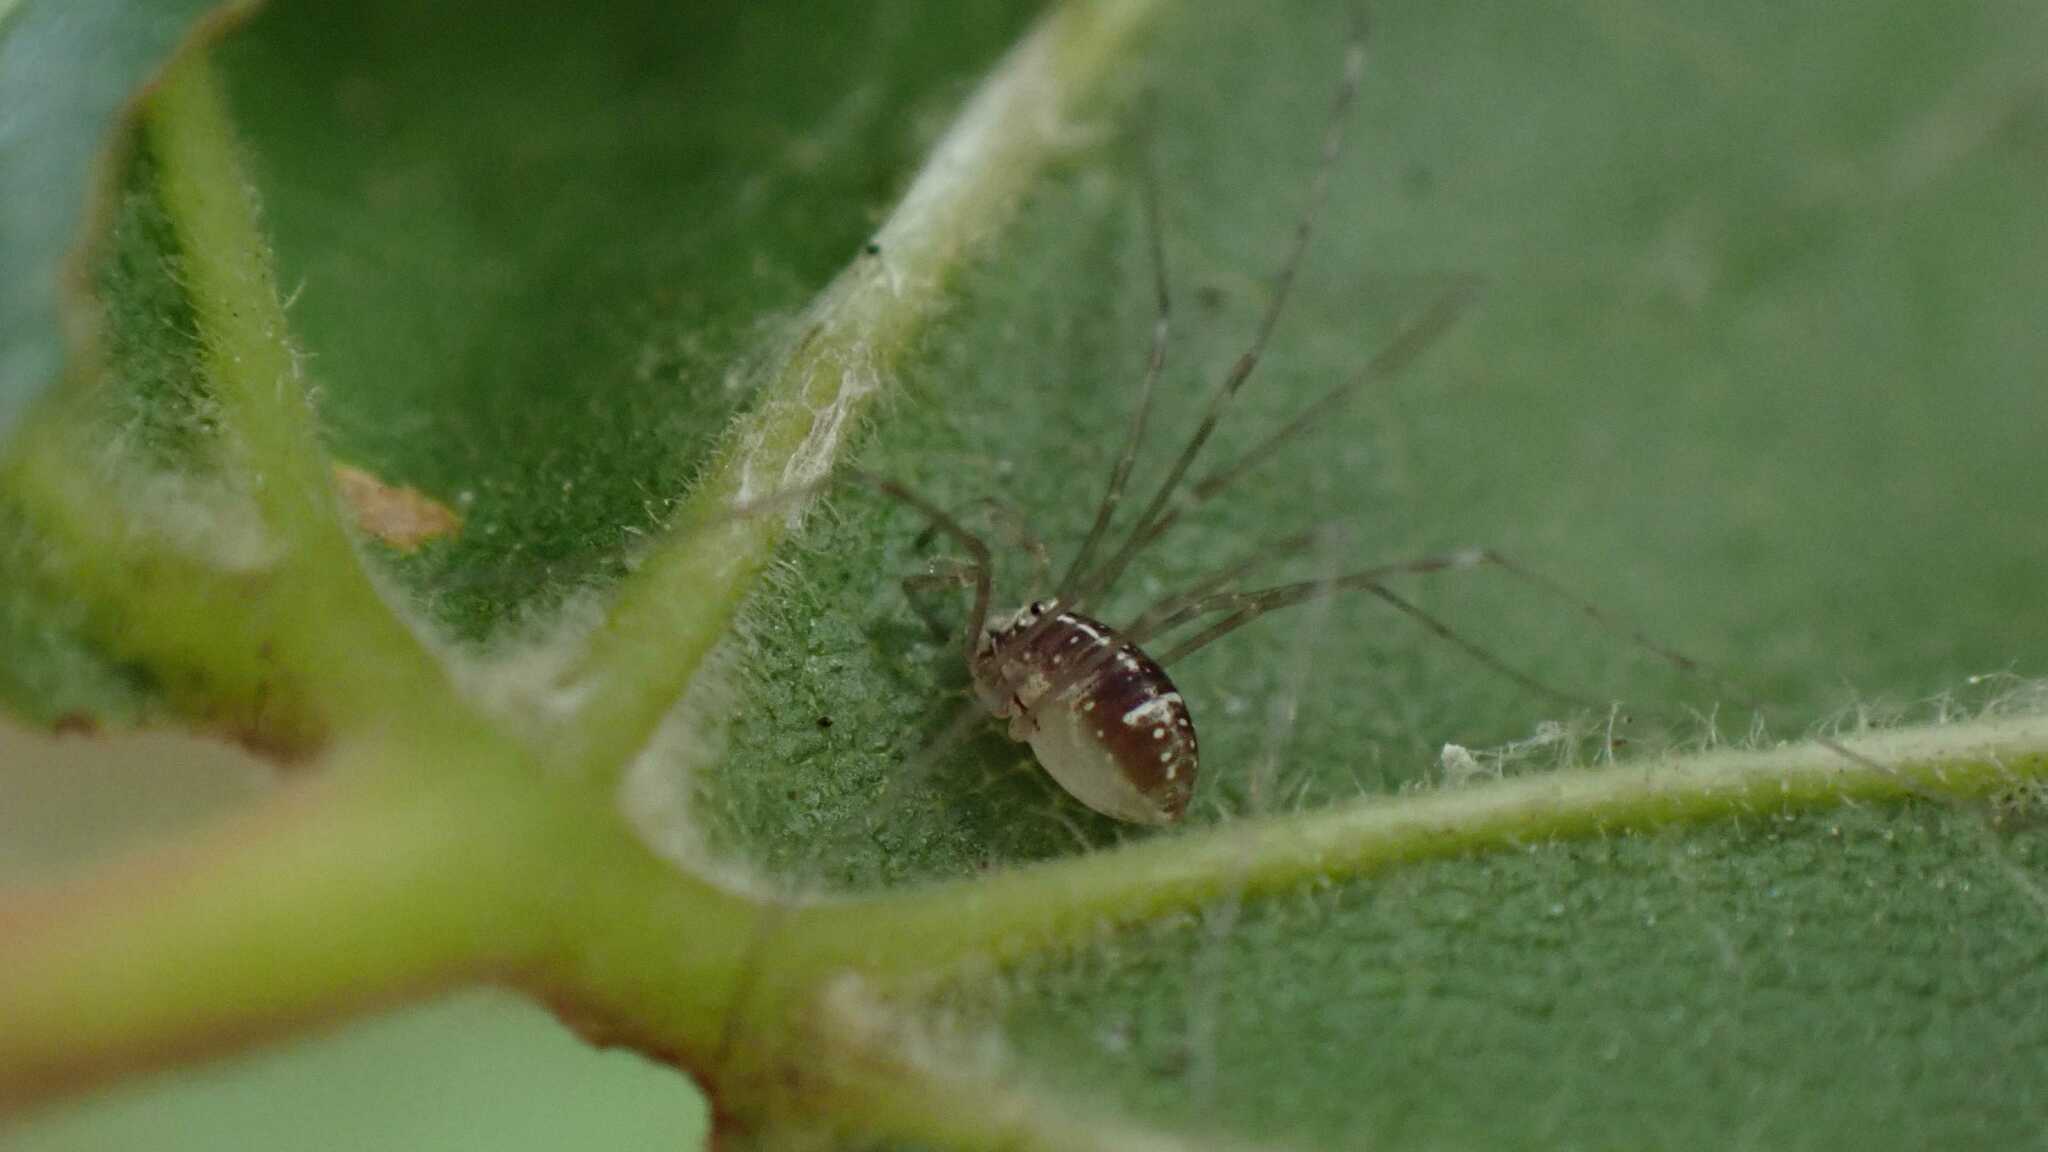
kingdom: Animalia
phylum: Arthropoda
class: Arachnida
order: Opiliones
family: Phalangiidae
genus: Dicranopalpus
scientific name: Dicranopalpus ramosus
